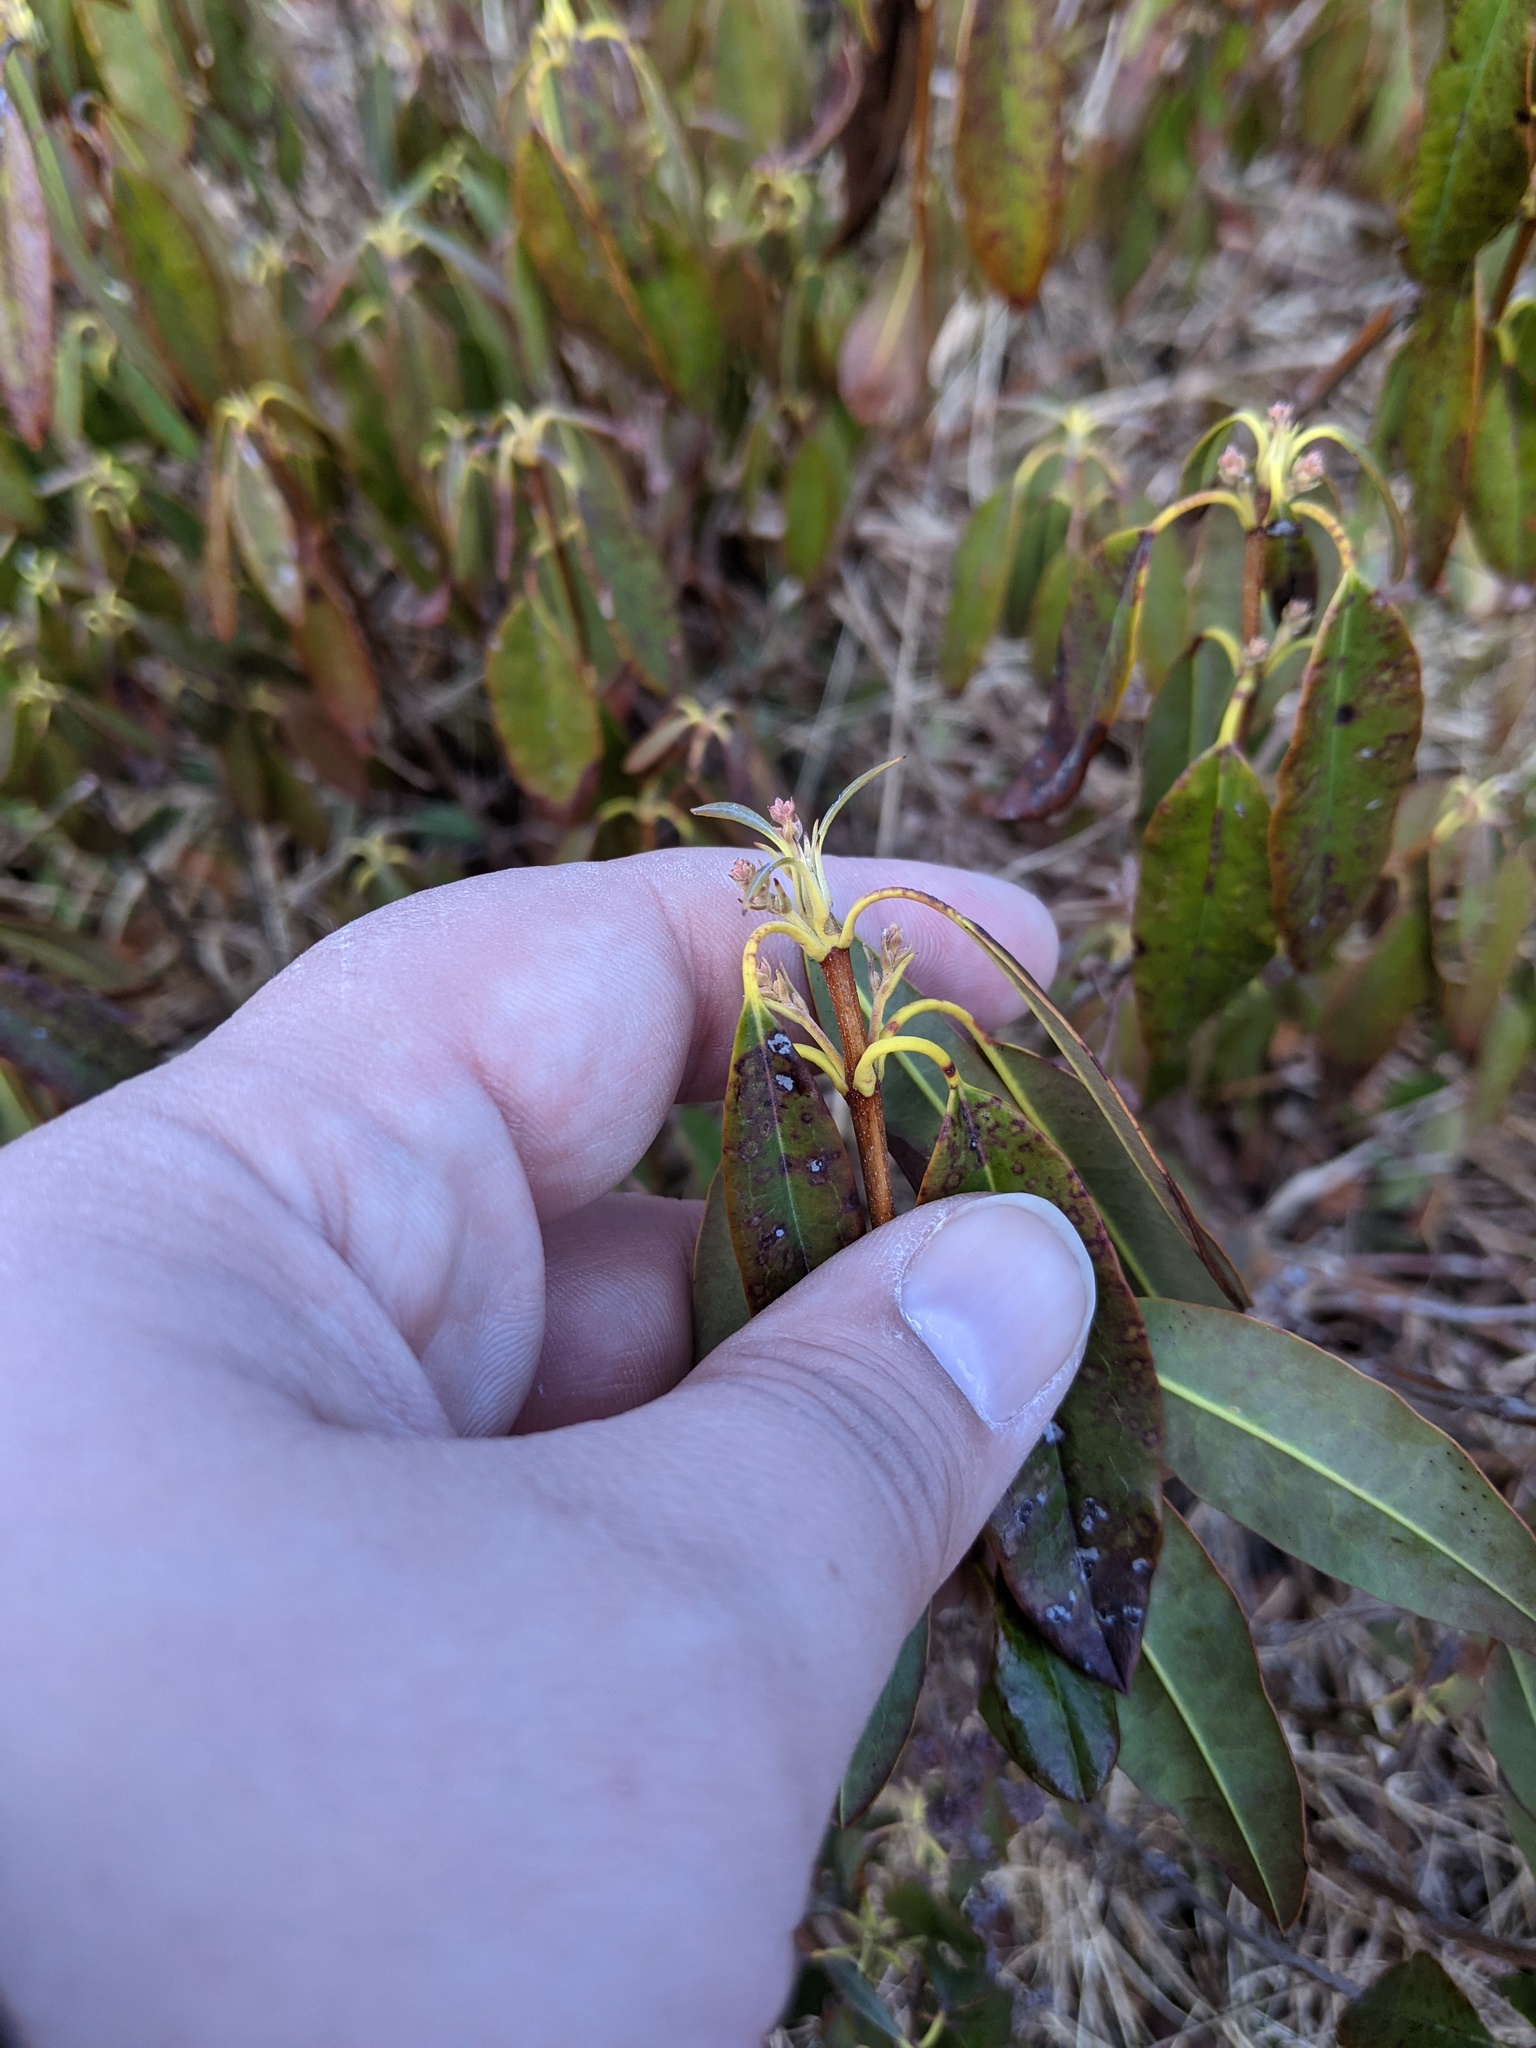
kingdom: Plantae
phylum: Tracheophyta
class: Magnoliopsida
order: Ericales
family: Ericaceae
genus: Kalmia
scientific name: Kalmia angustifolia
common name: Sheep-laurel
